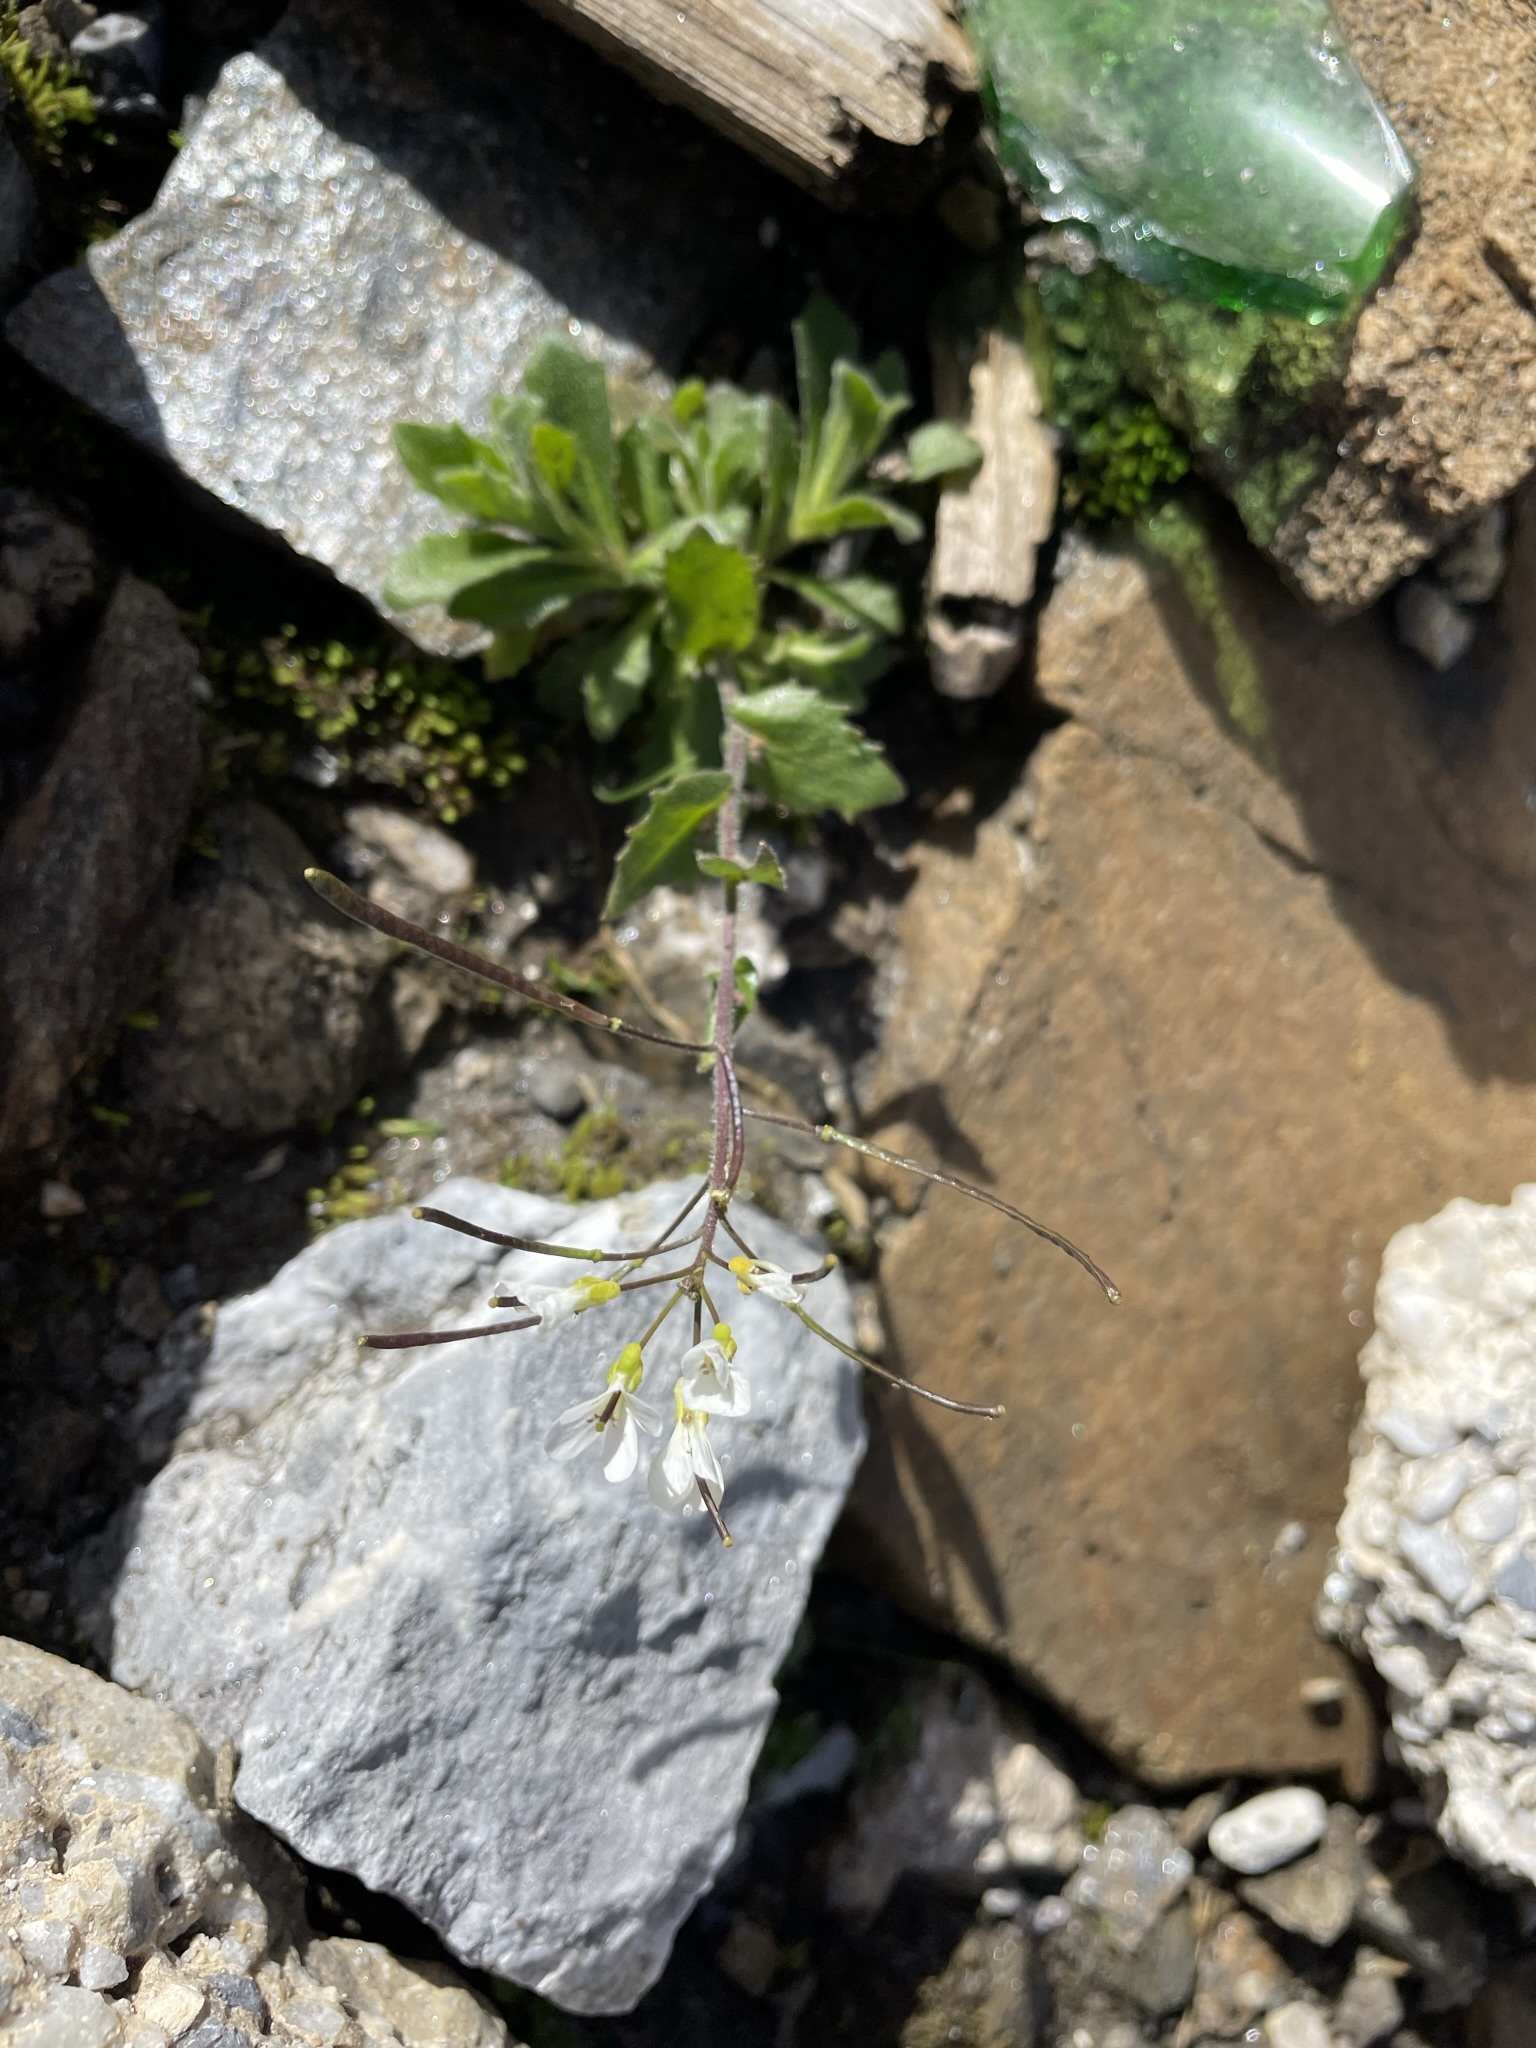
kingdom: Plantae
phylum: Tracheophyta
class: Magnoliopsida
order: Brassicales
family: Brassicaceae
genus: Arabis
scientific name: Arabis alpina
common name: Alpine rock-cress
